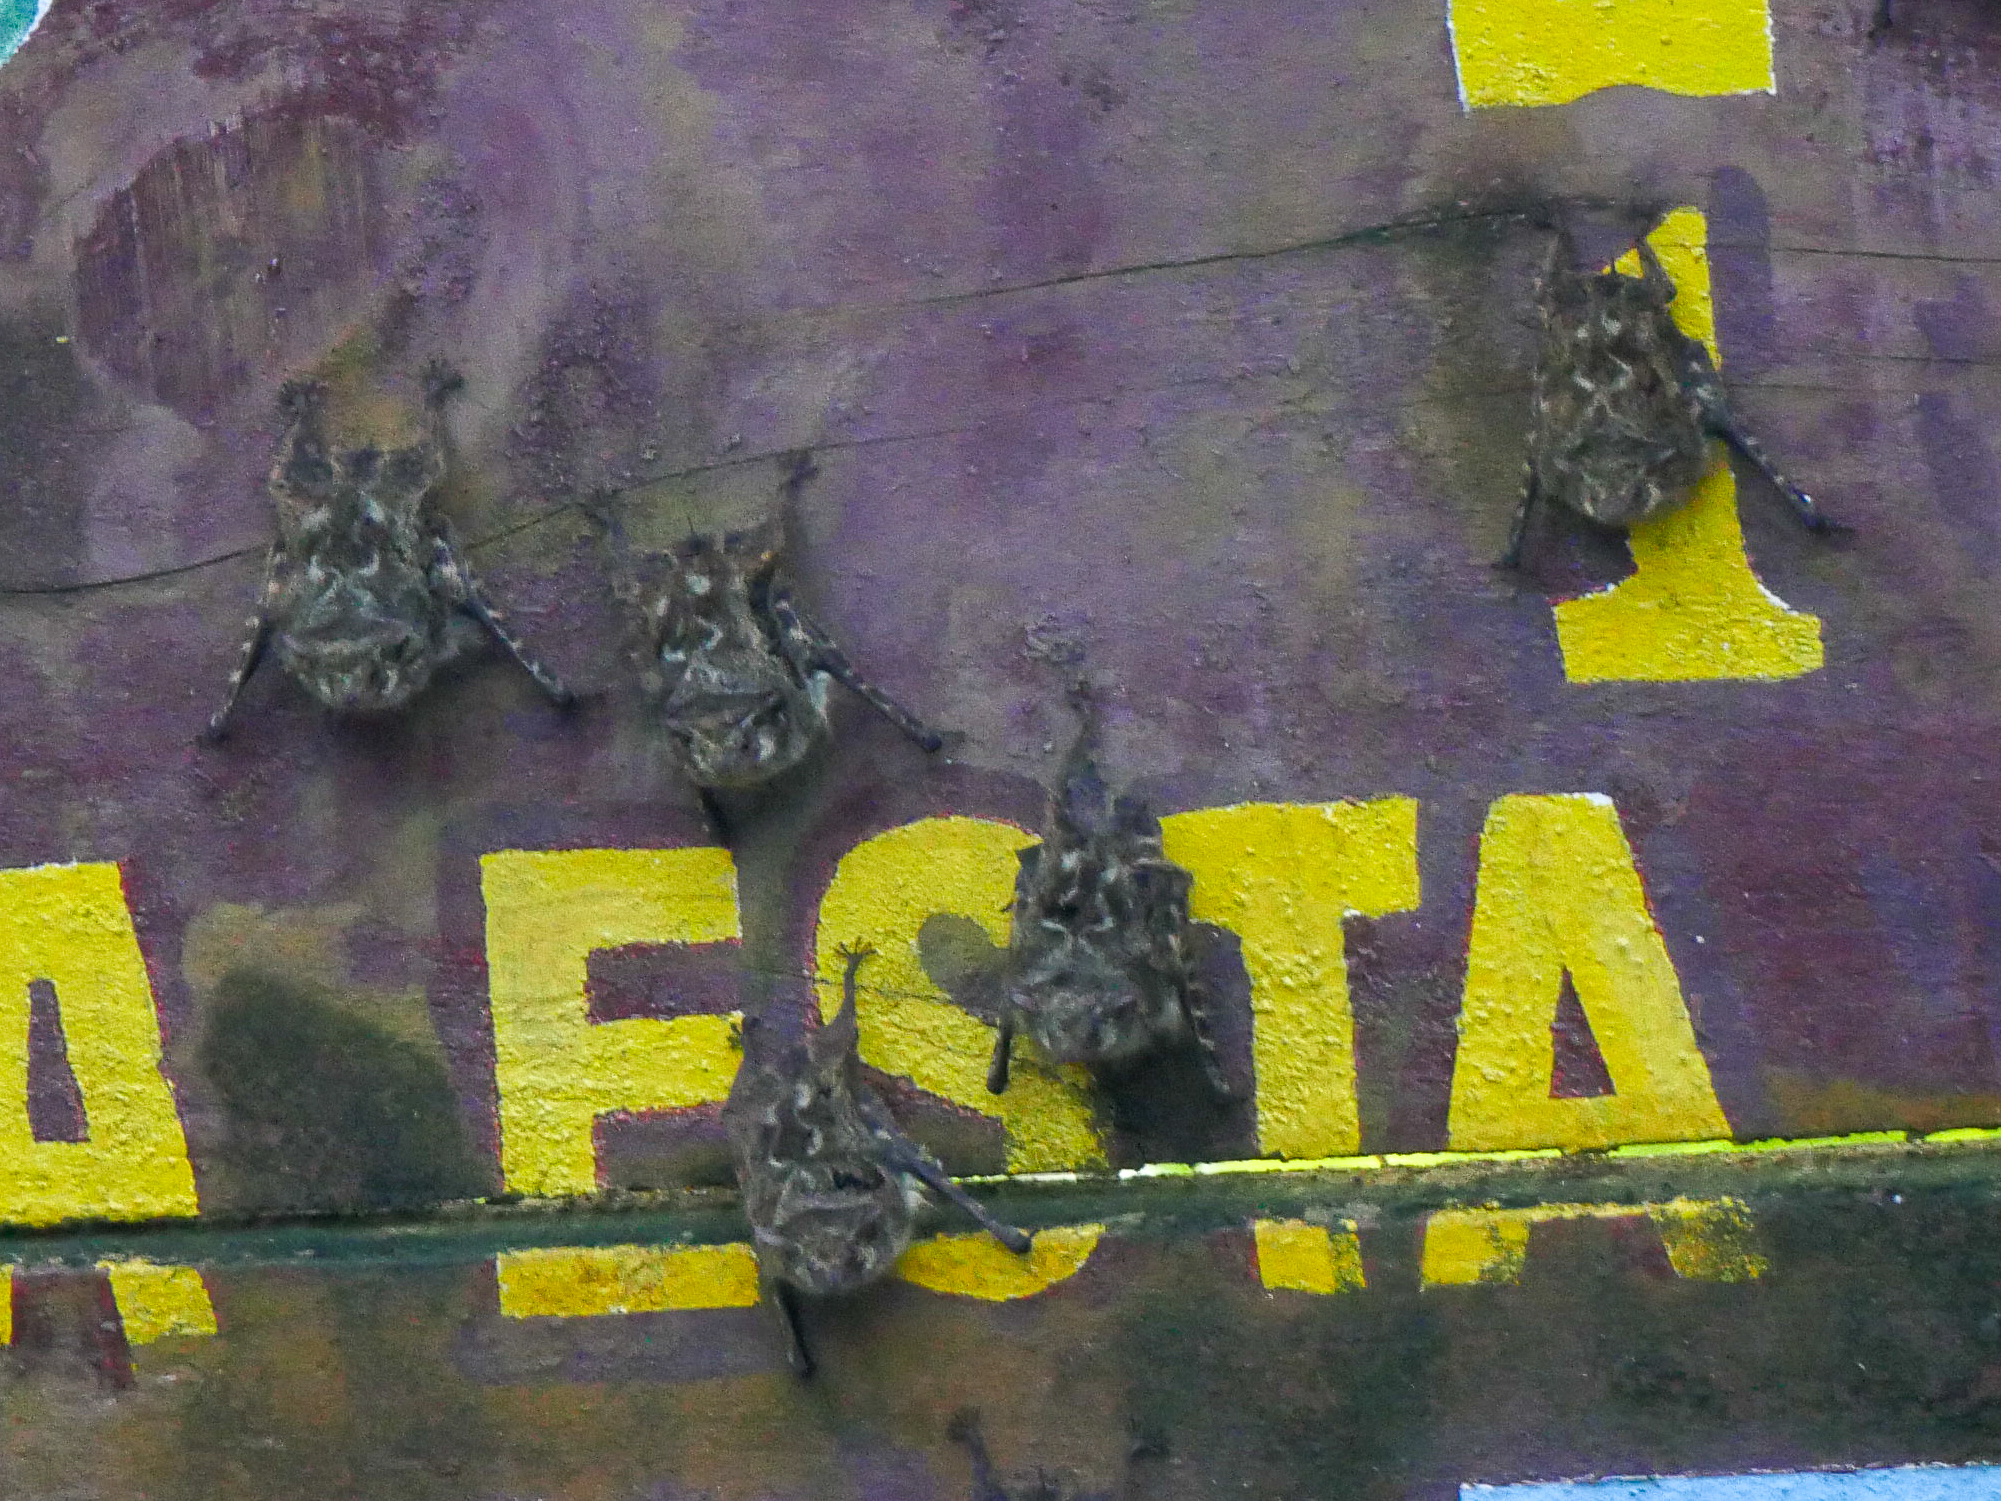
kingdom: Animalia
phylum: Chordata
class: Mammalia
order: Chiroptera
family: Emballonuridae
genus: Rhynchonycteris
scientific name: Rhynchonycteris naso
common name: Proboscis bat
